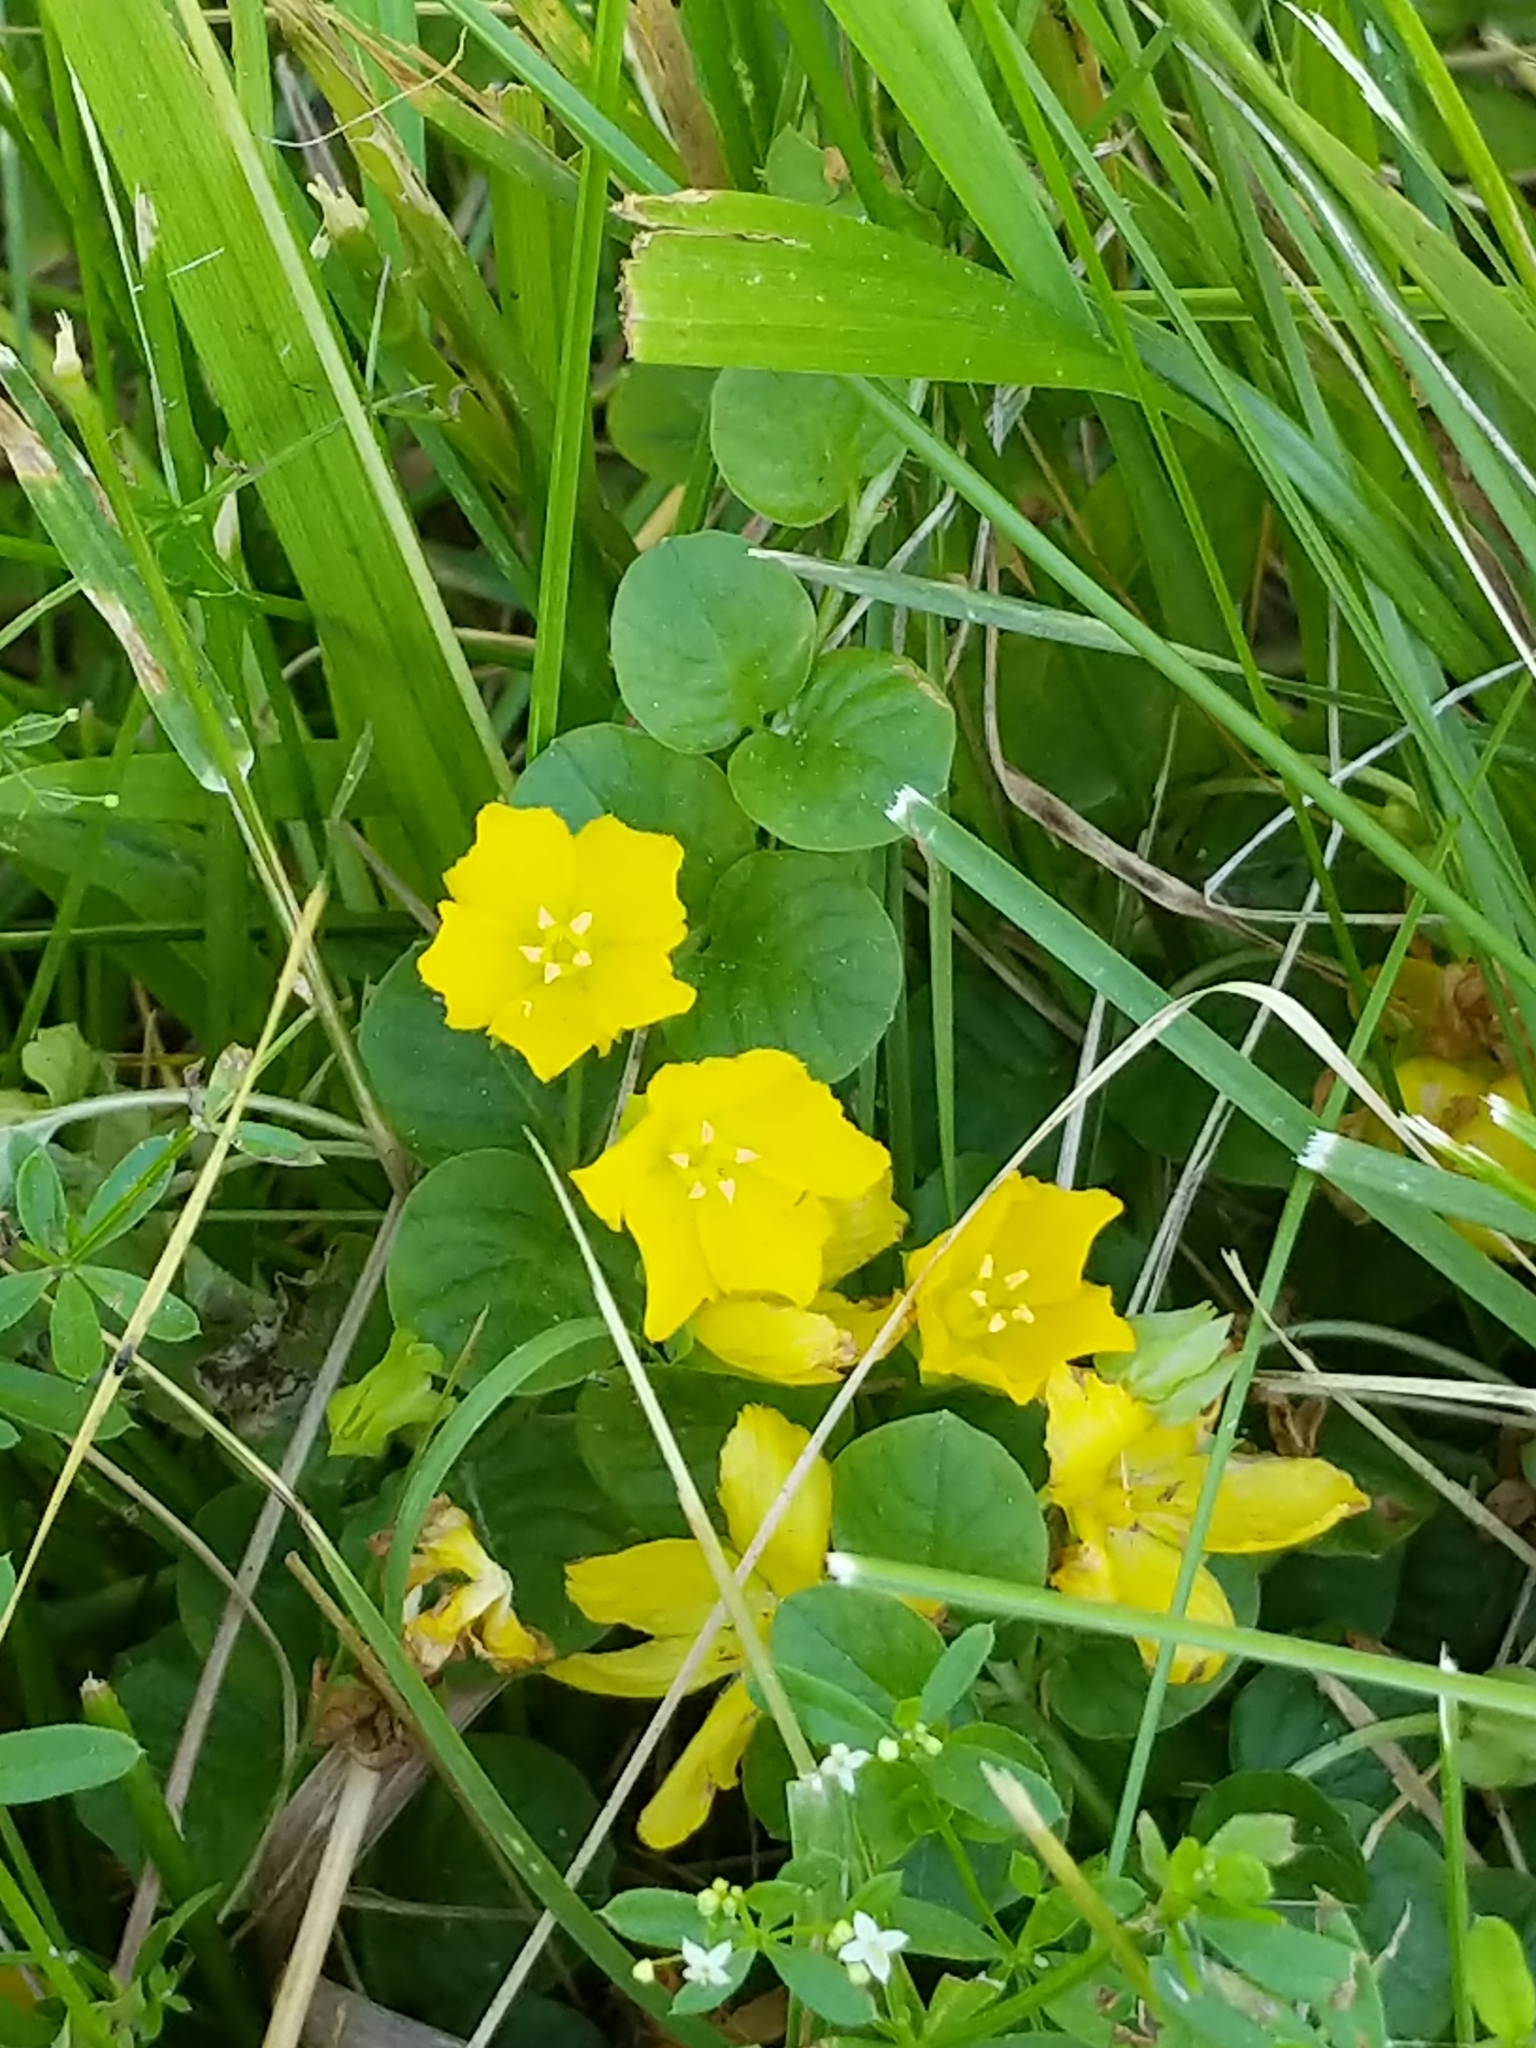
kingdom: Plantae
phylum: Tracheophyta
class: Magnoliopsida
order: Ericales
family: Primulaceae
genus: Lysimachia
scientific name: Lysimachia nummularia
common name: Moneywort
